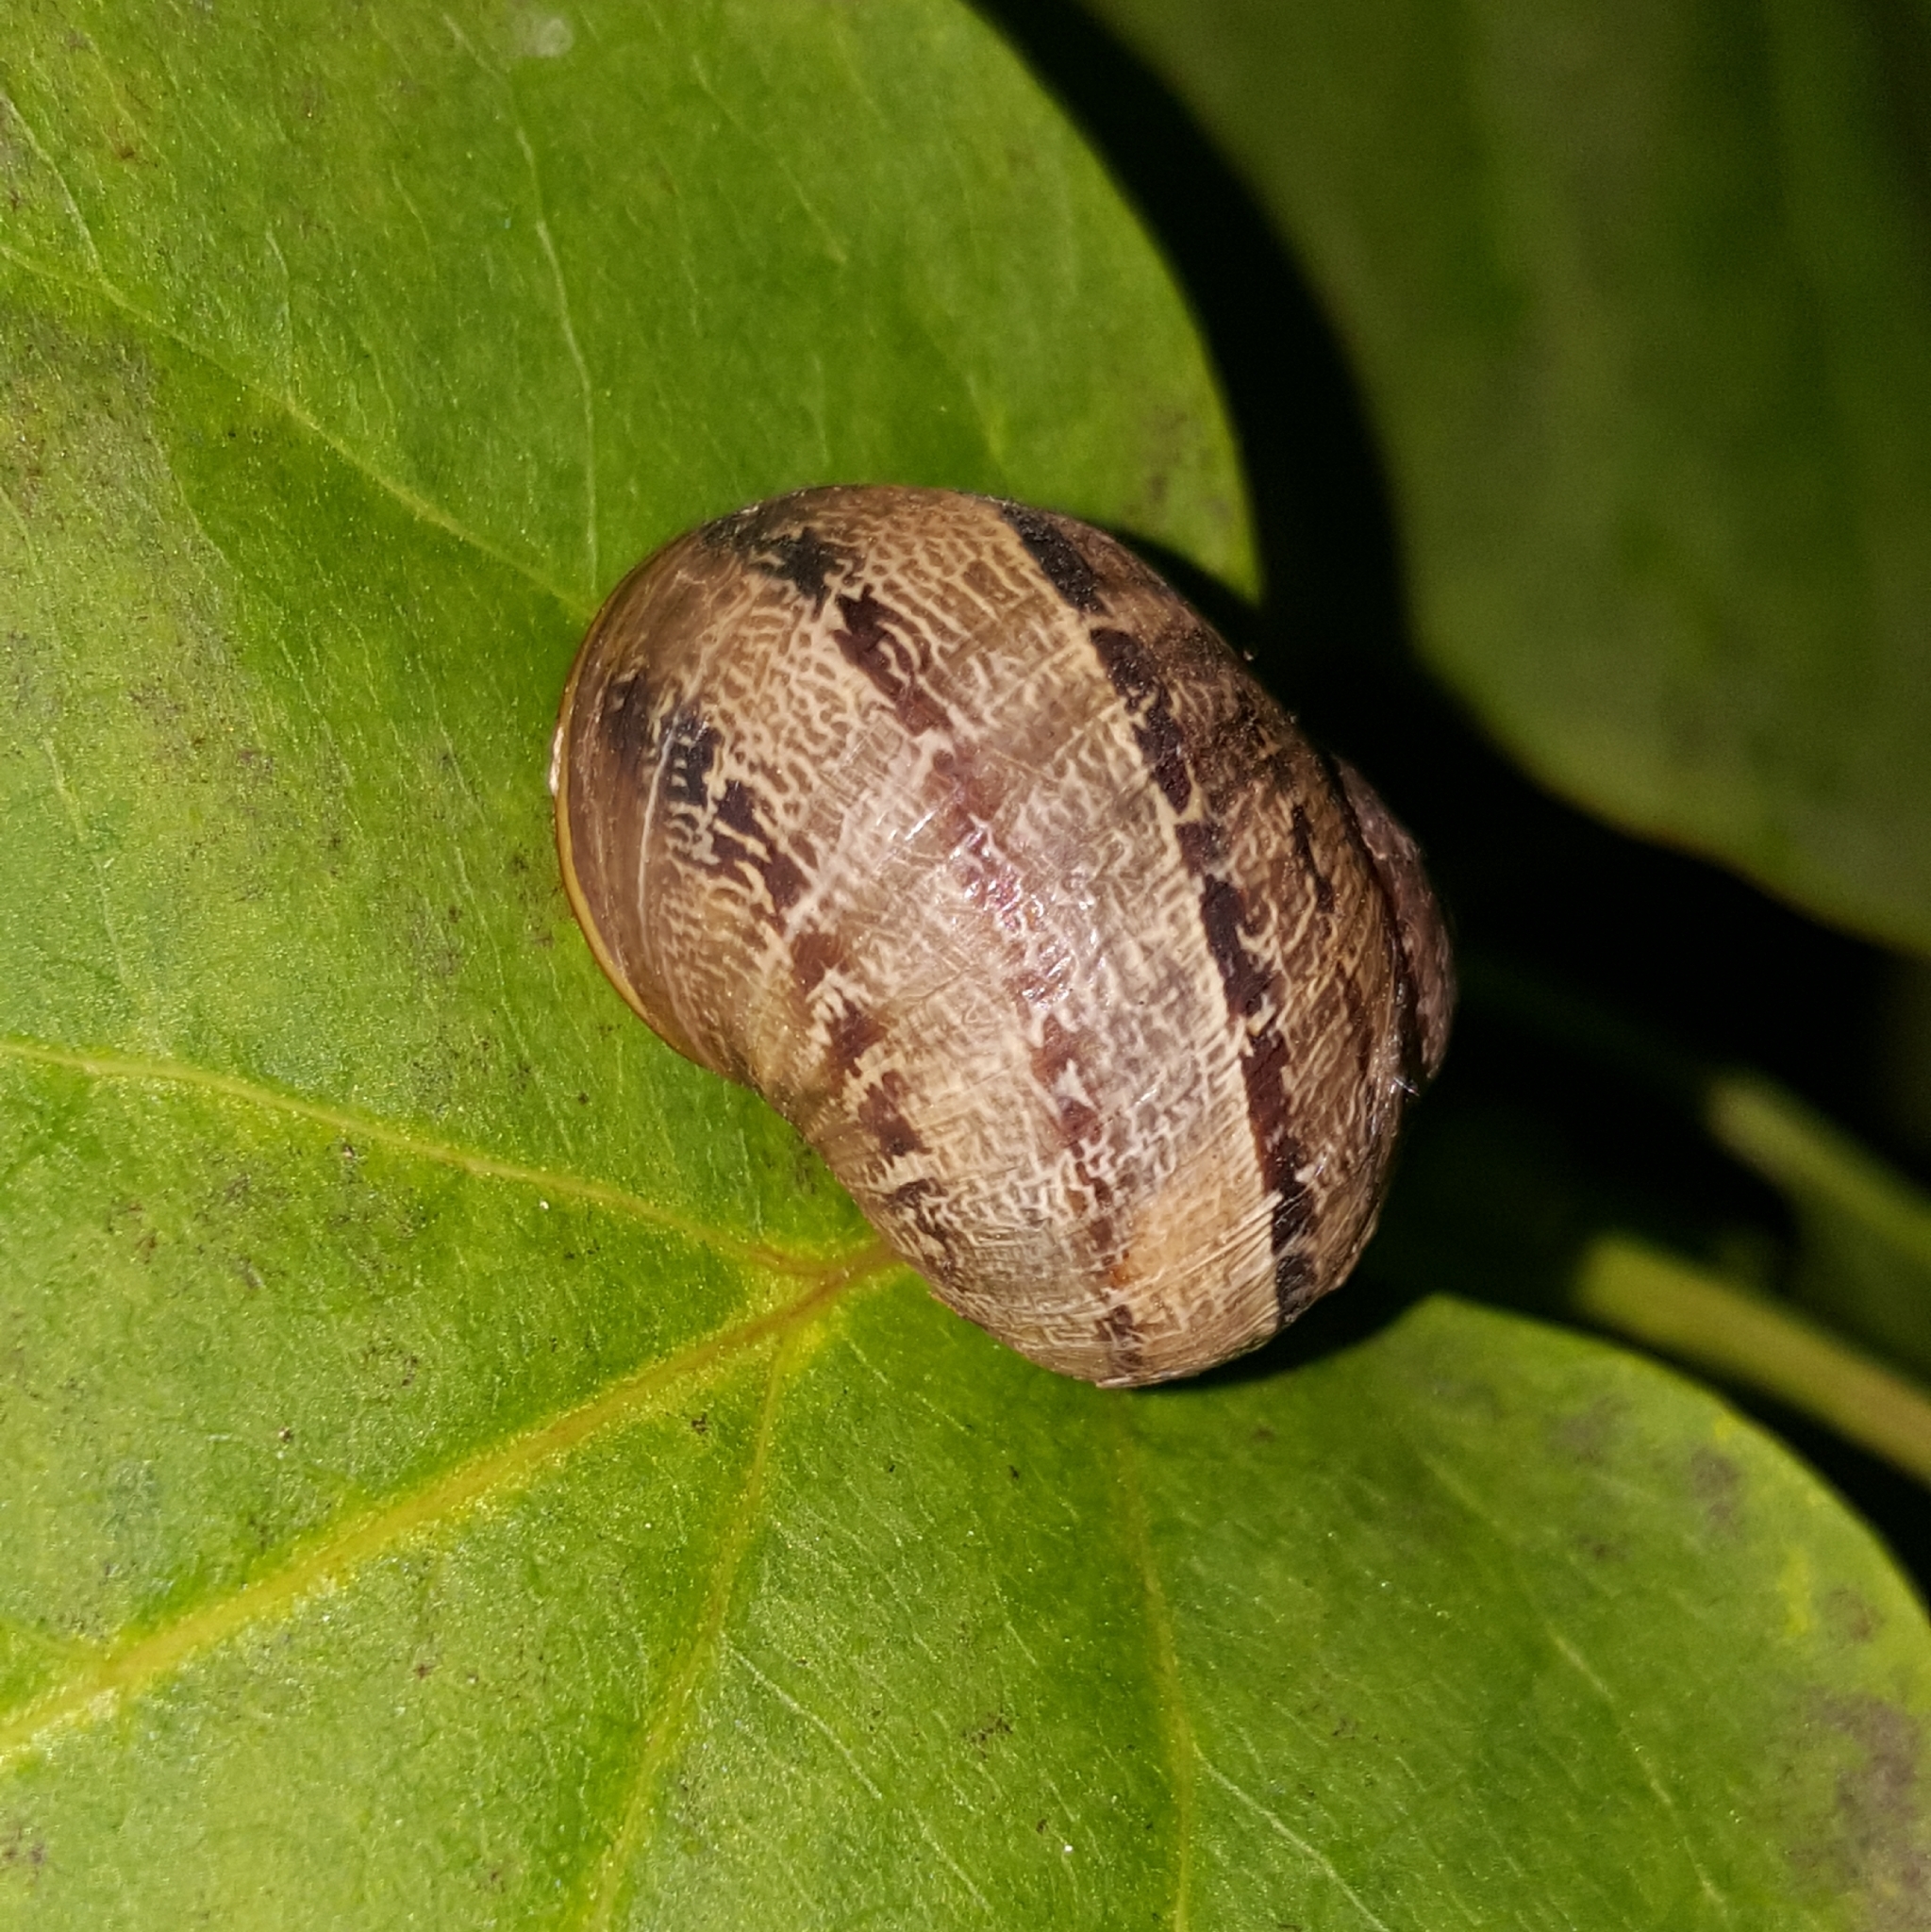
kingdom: Animalia
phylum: Mollusca
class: Gastropoda
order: Stylommatophora
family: Helicidae
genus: Cornu
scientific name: Cornu aspersum
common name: Brown garden snail
